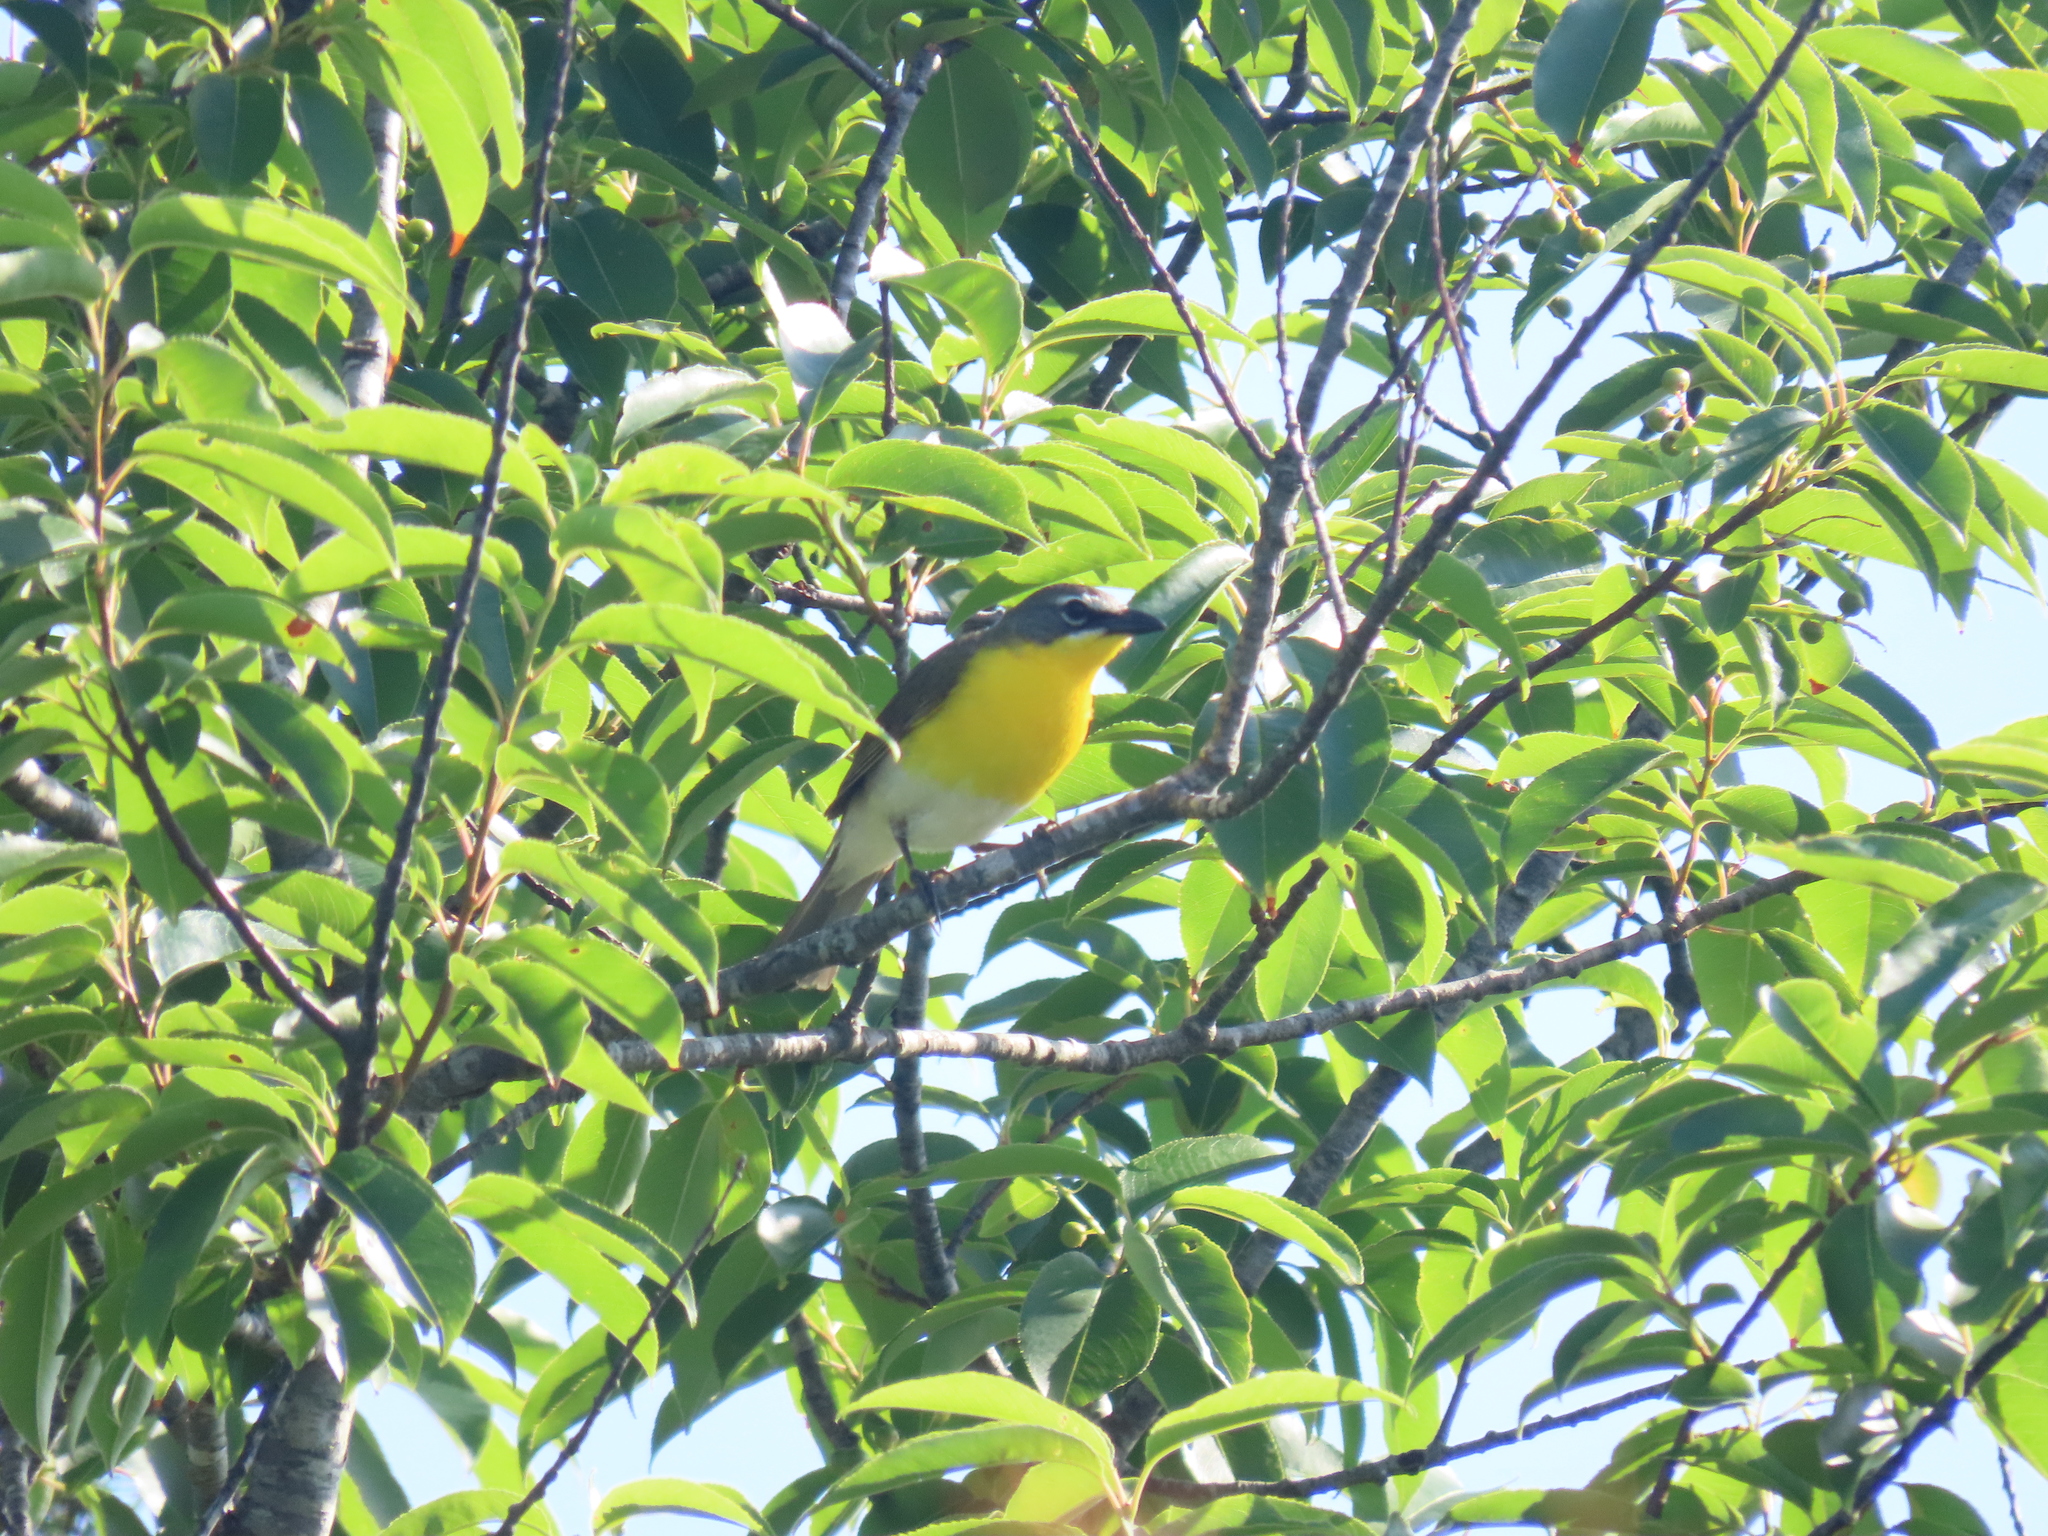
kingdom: Animalia
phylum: Chordata
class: Aves
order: Passeriformes
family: Parulidae
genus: Icteria
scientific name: Icteria virens
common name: Yellow-breasted chat
